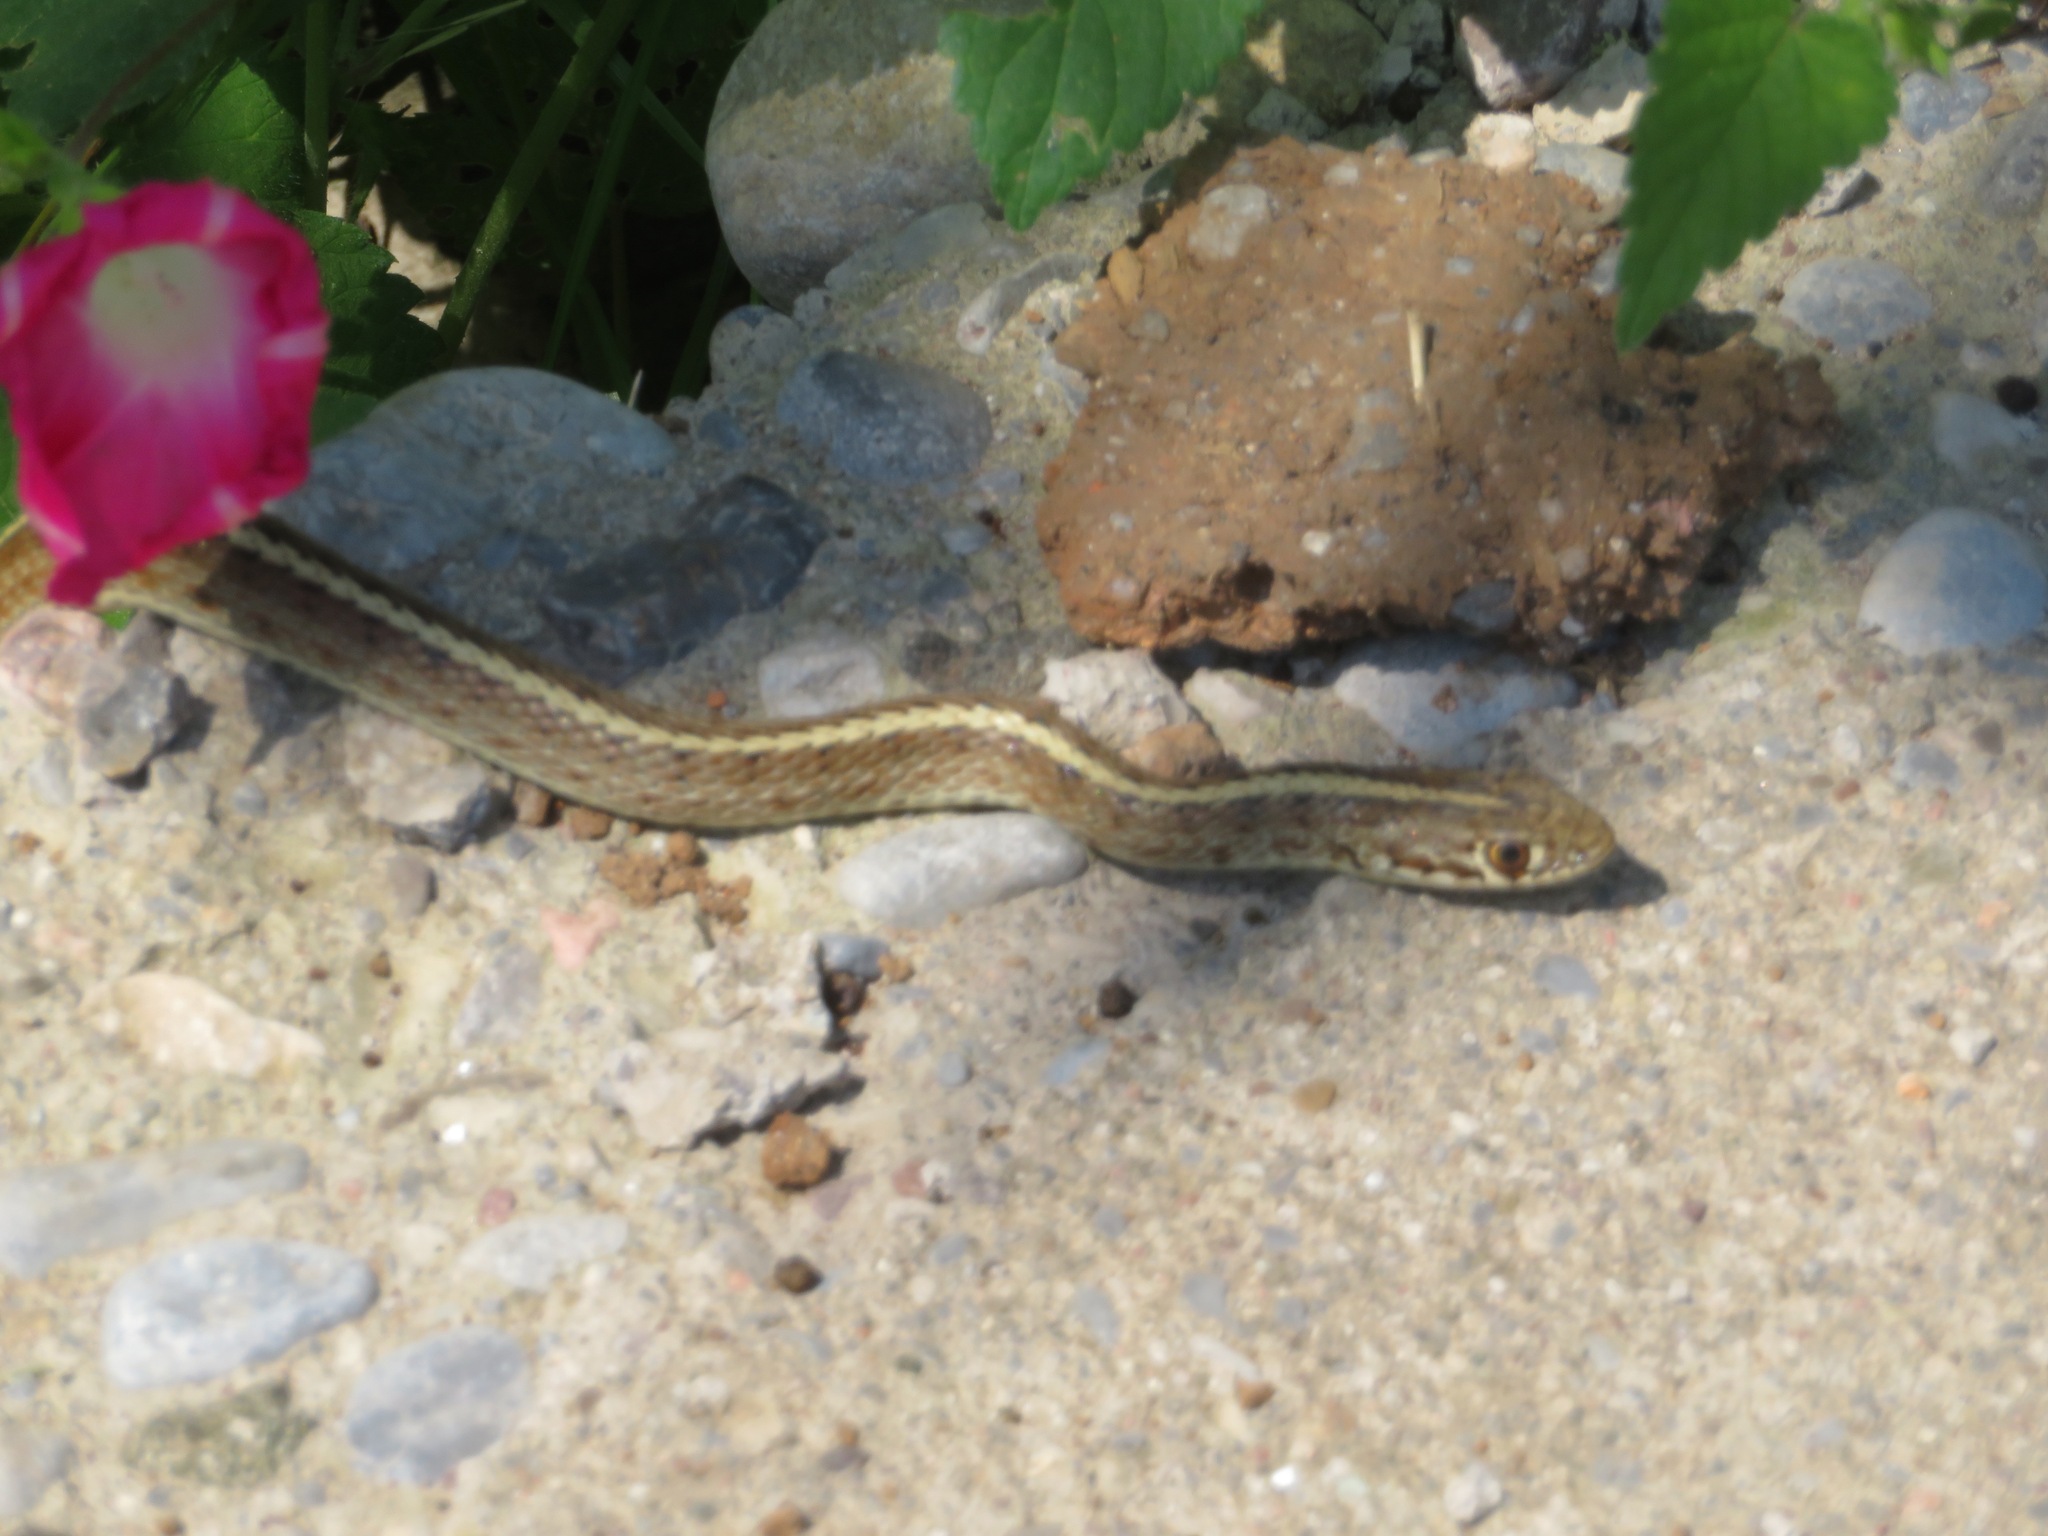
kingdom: Animalia
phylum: Chordata
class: Squamata
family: Colubridae
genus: Orientocoluber
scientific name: Orientocoluber spinalis
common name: Slender racer
